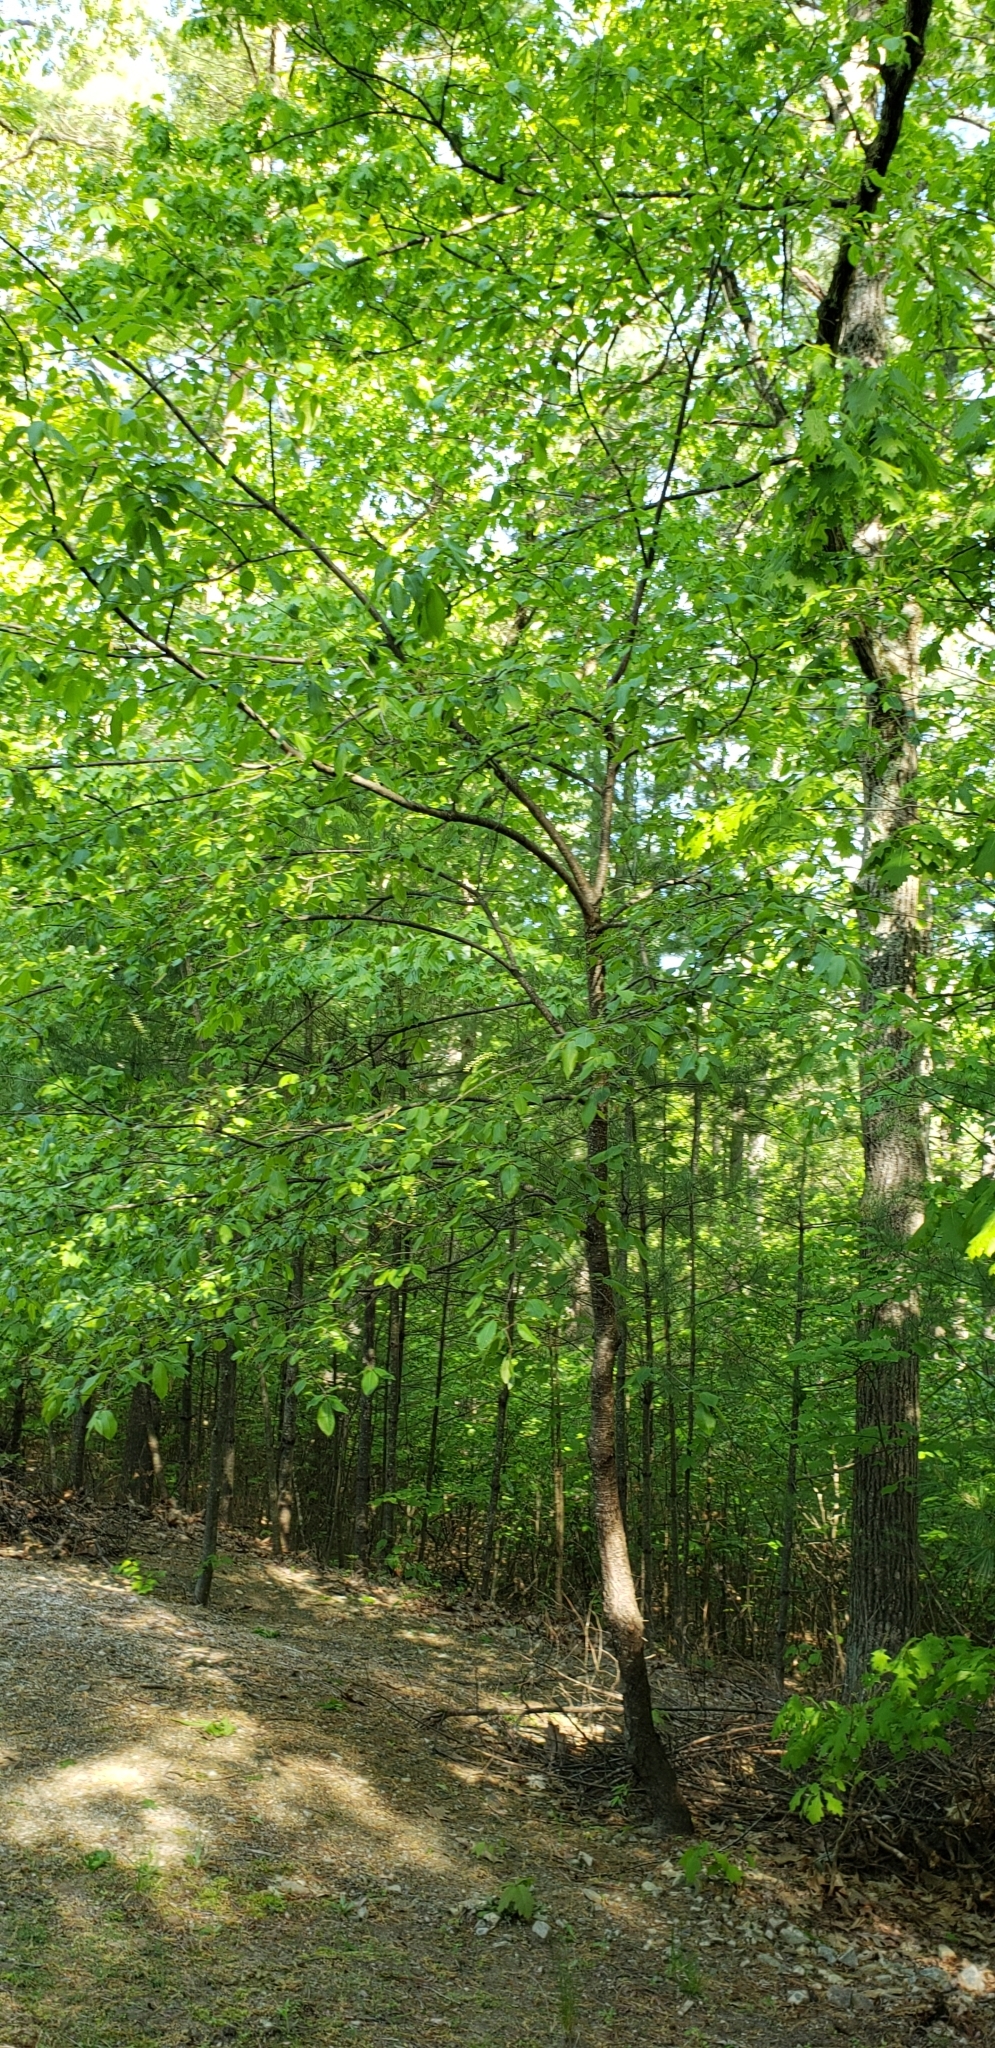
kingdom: Plantae
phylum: Tracheophyta
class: Magnoliopsida
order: Rosales
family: Rosaceae
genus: Prunus
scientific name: Prunus serotina
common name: Black cherry
